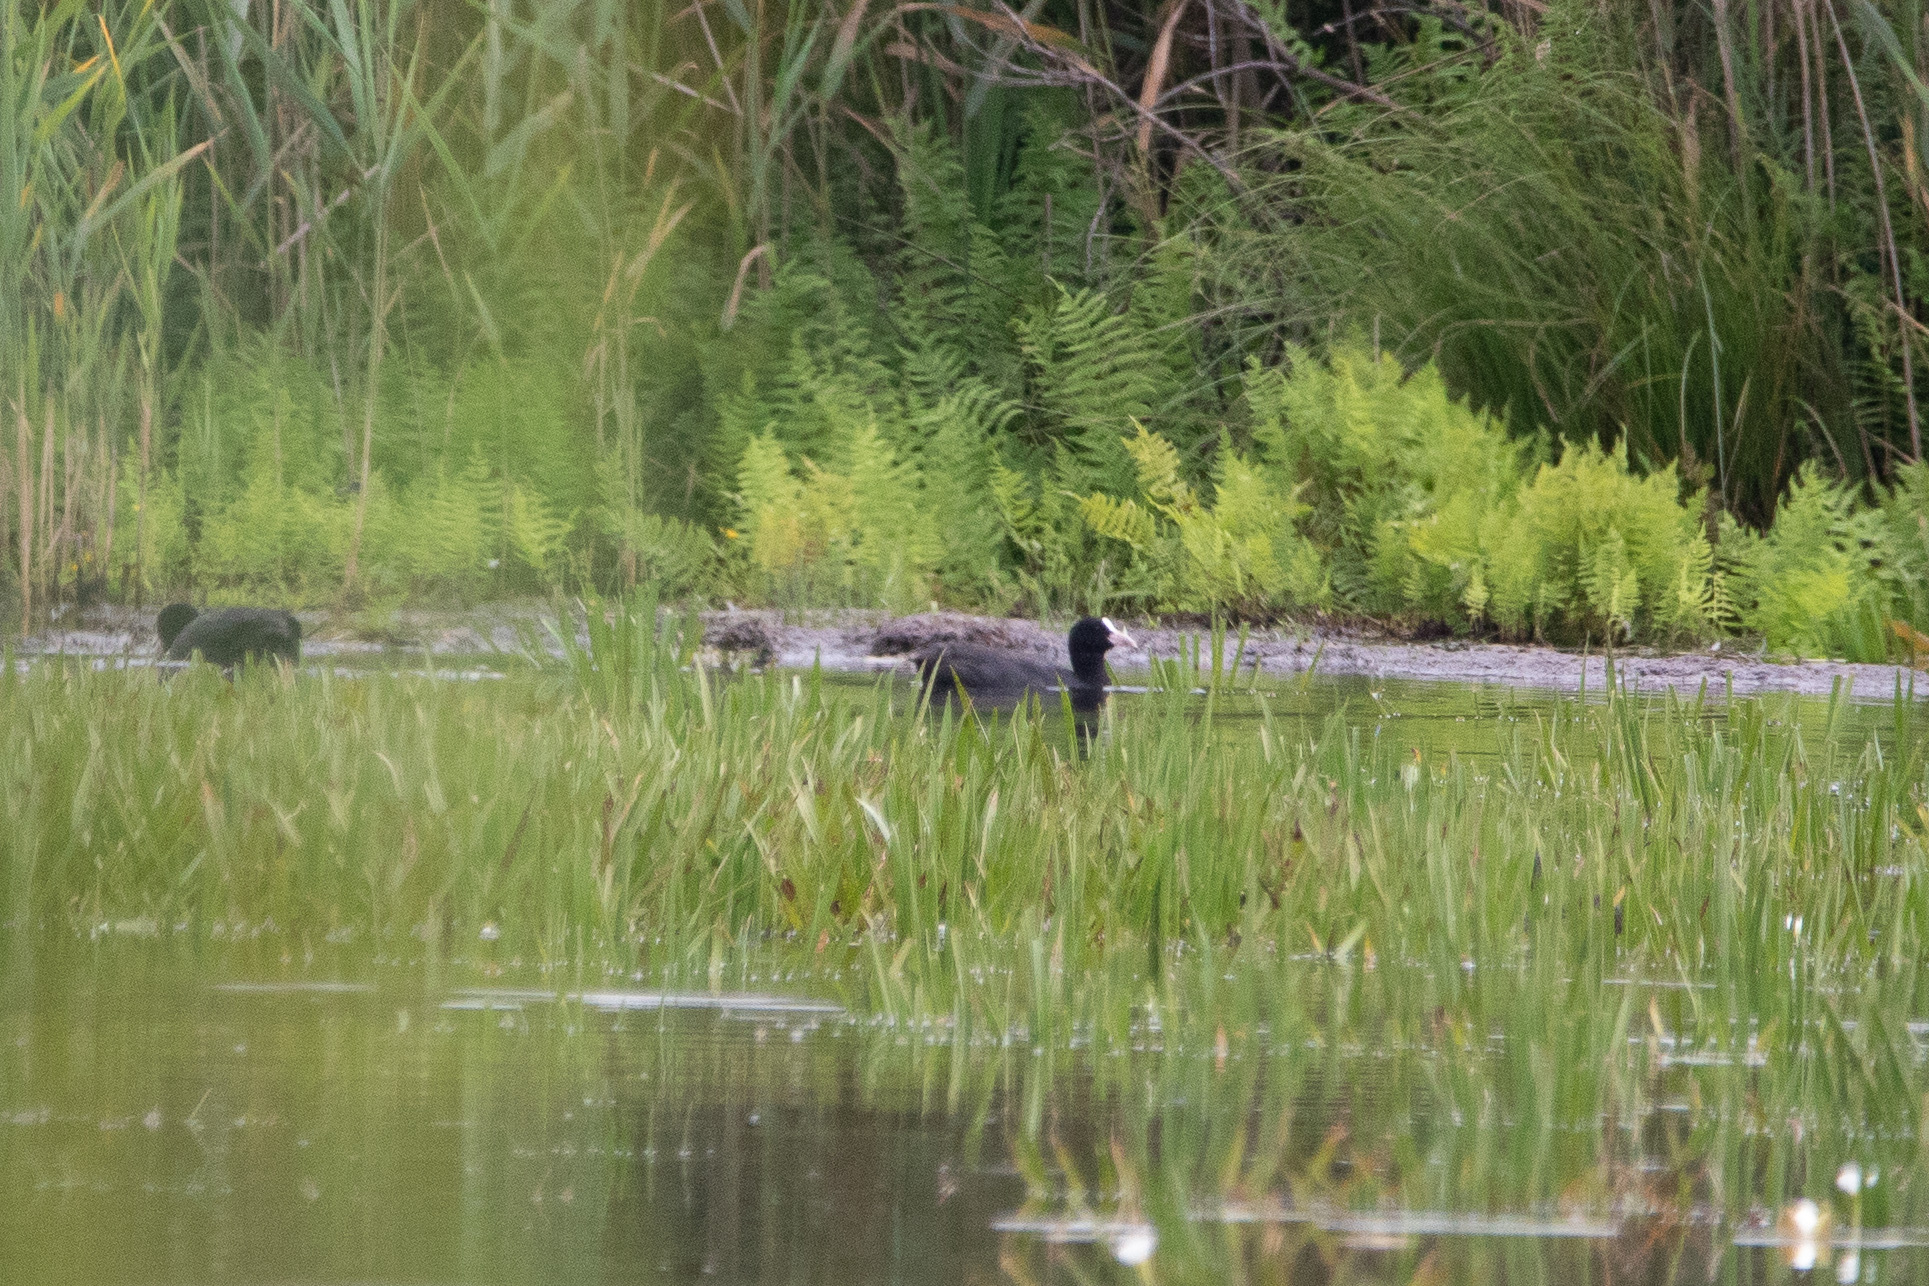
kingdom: Animalia
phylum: Chordata
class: Aves
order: Gruiformes
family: Rallidae
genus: Fulica
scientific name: Fulica atra
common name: Eurasian coot
